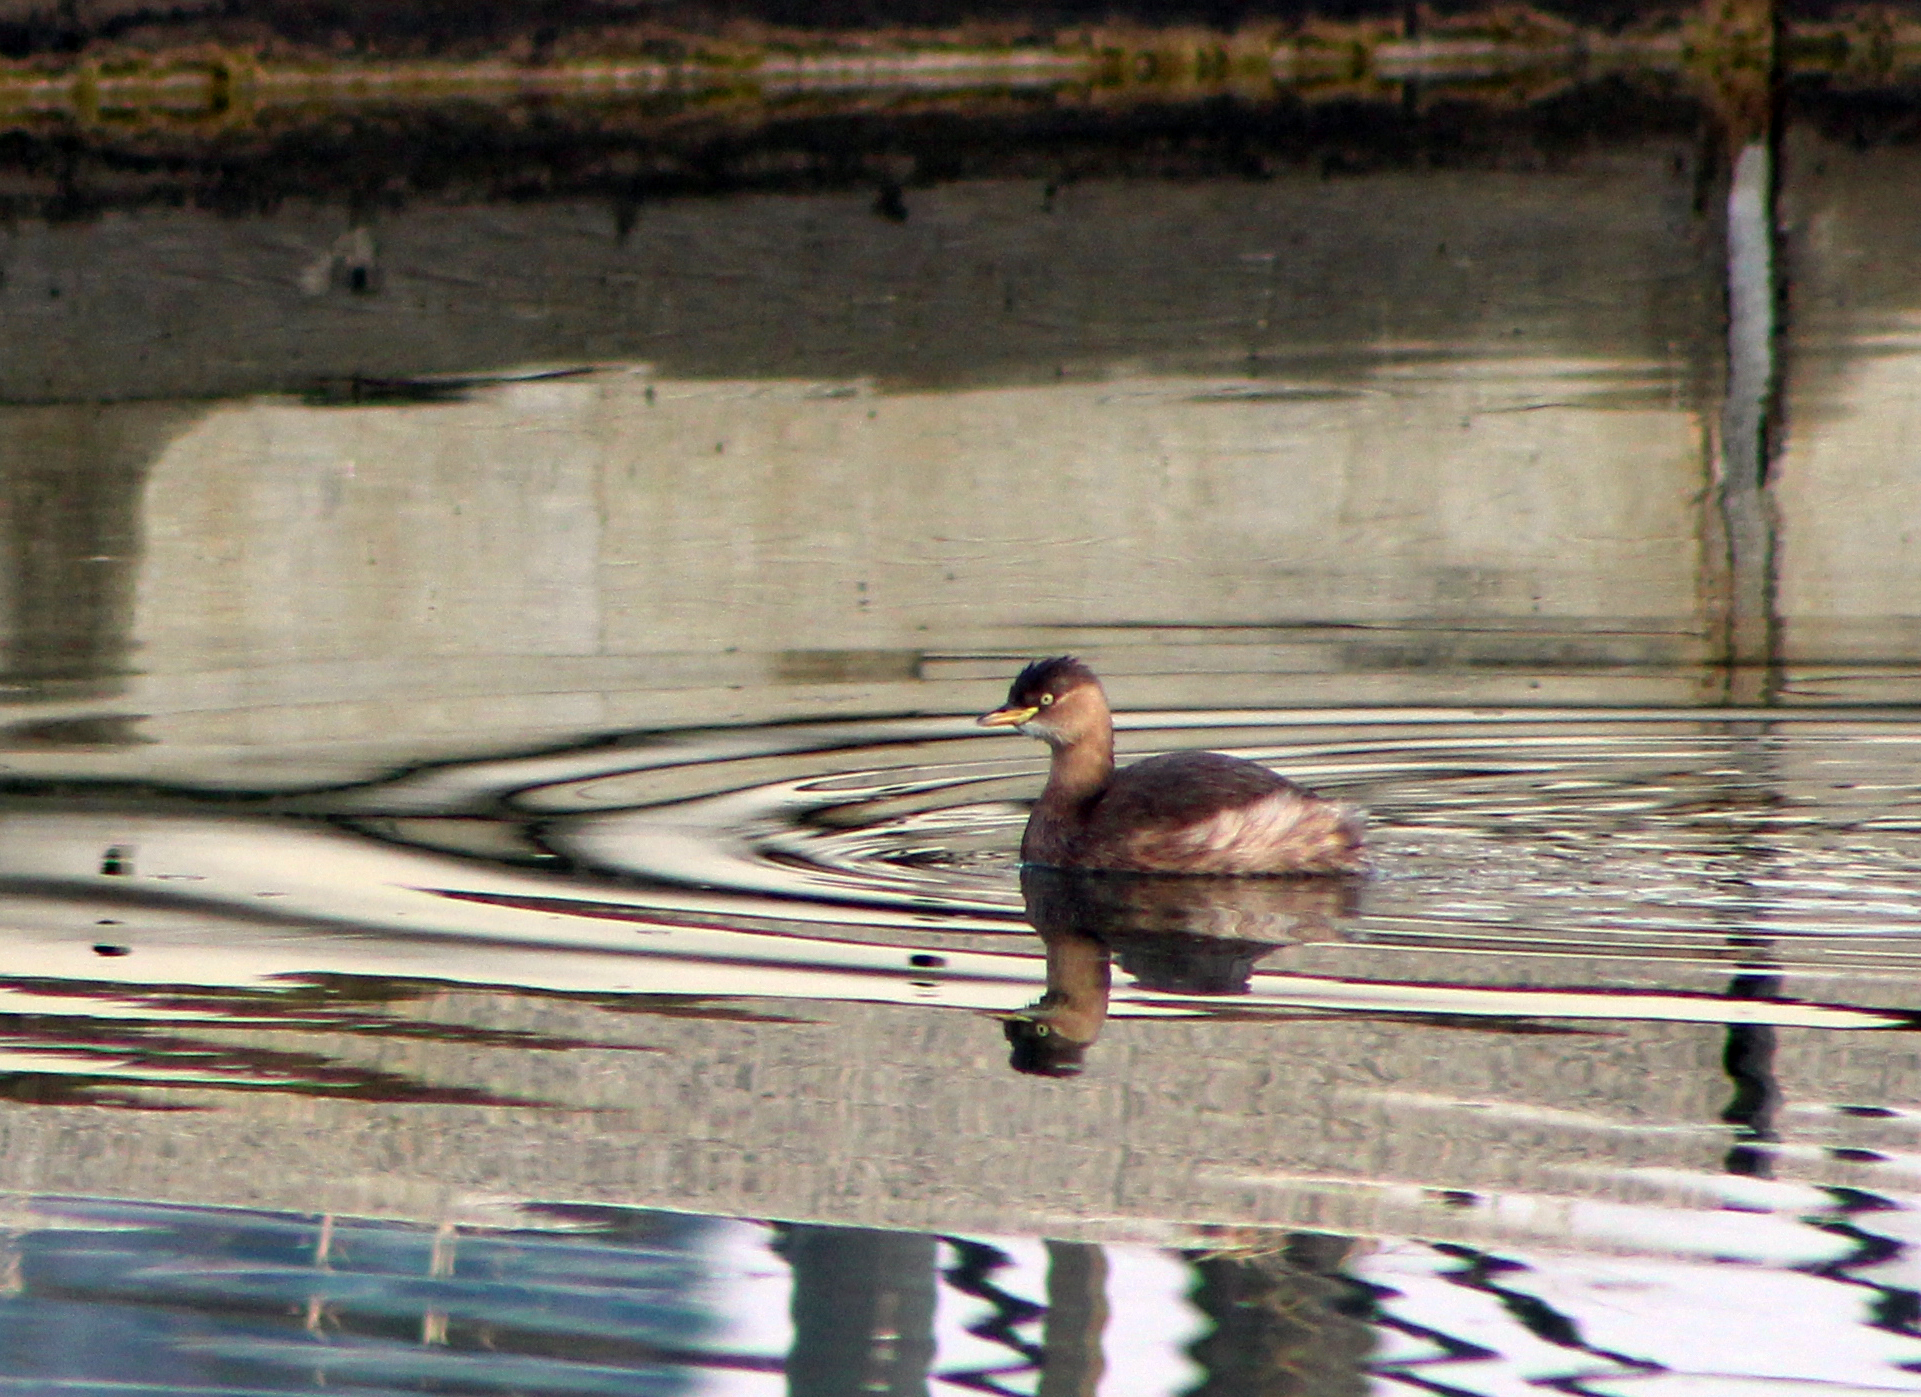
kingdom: Animalia
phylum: Chordata
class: Aves
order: Podicipediformes
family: Podicipedidae
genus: Tachybaptus
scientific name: Tachybaptus ruficollis
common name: Little grebe
